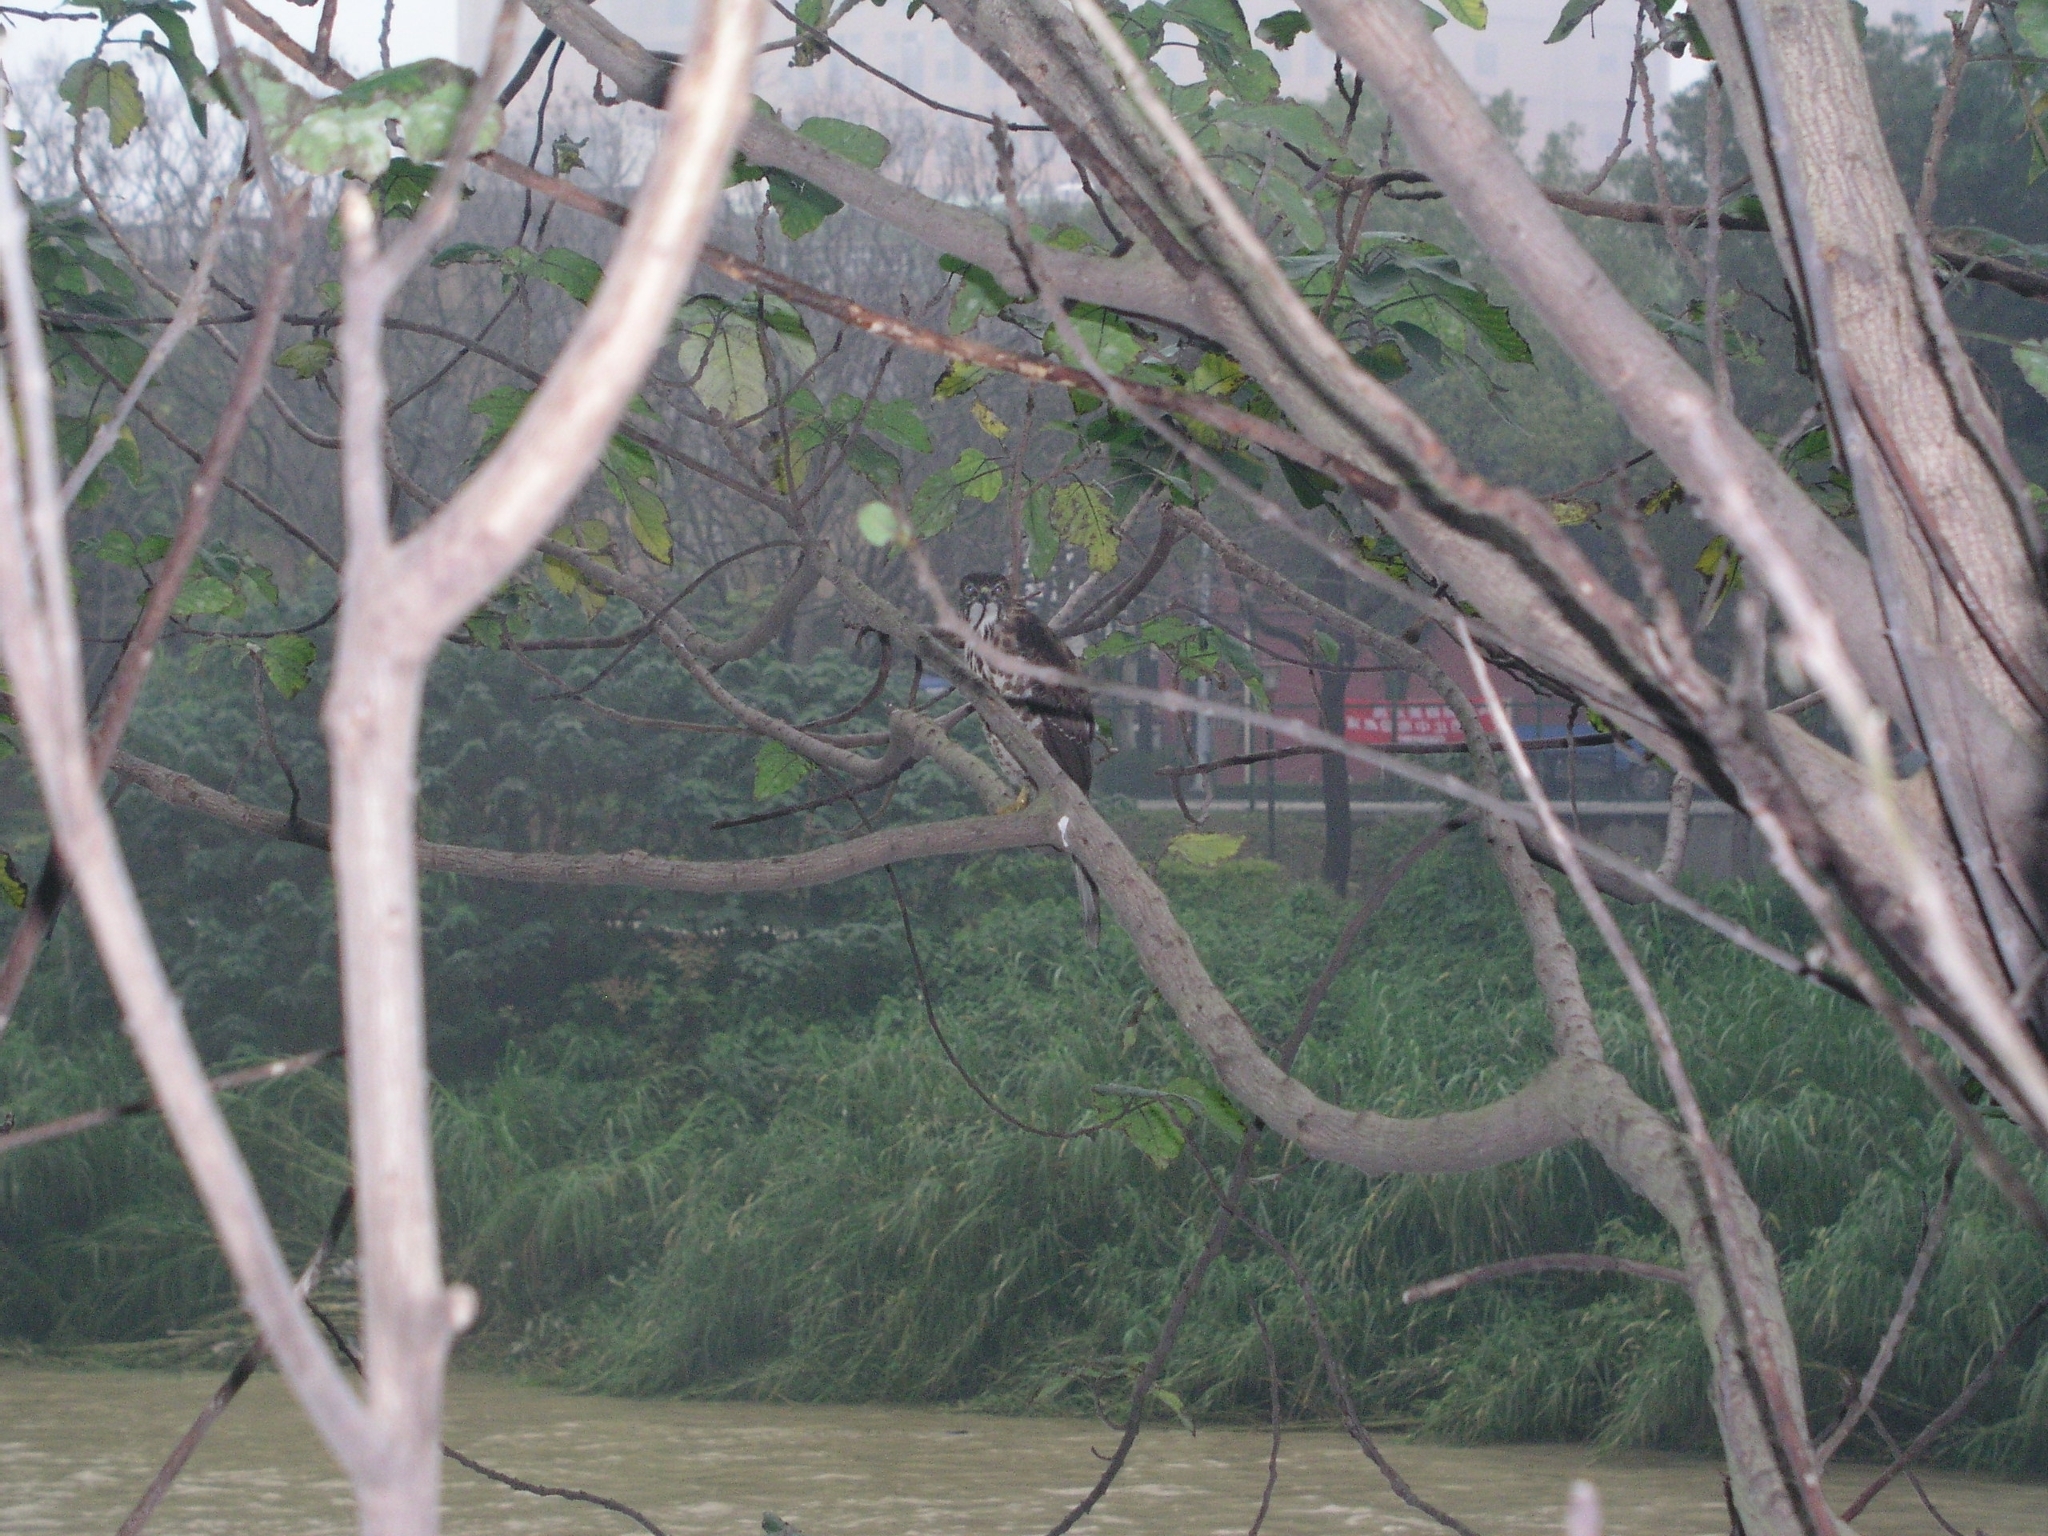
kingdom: Animalia
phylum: Chordata
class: Aves
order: Accipitriformes
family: Accipitridae
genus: Accipiter
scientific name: Accipiter trivirgatus
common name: Crested goshawk
